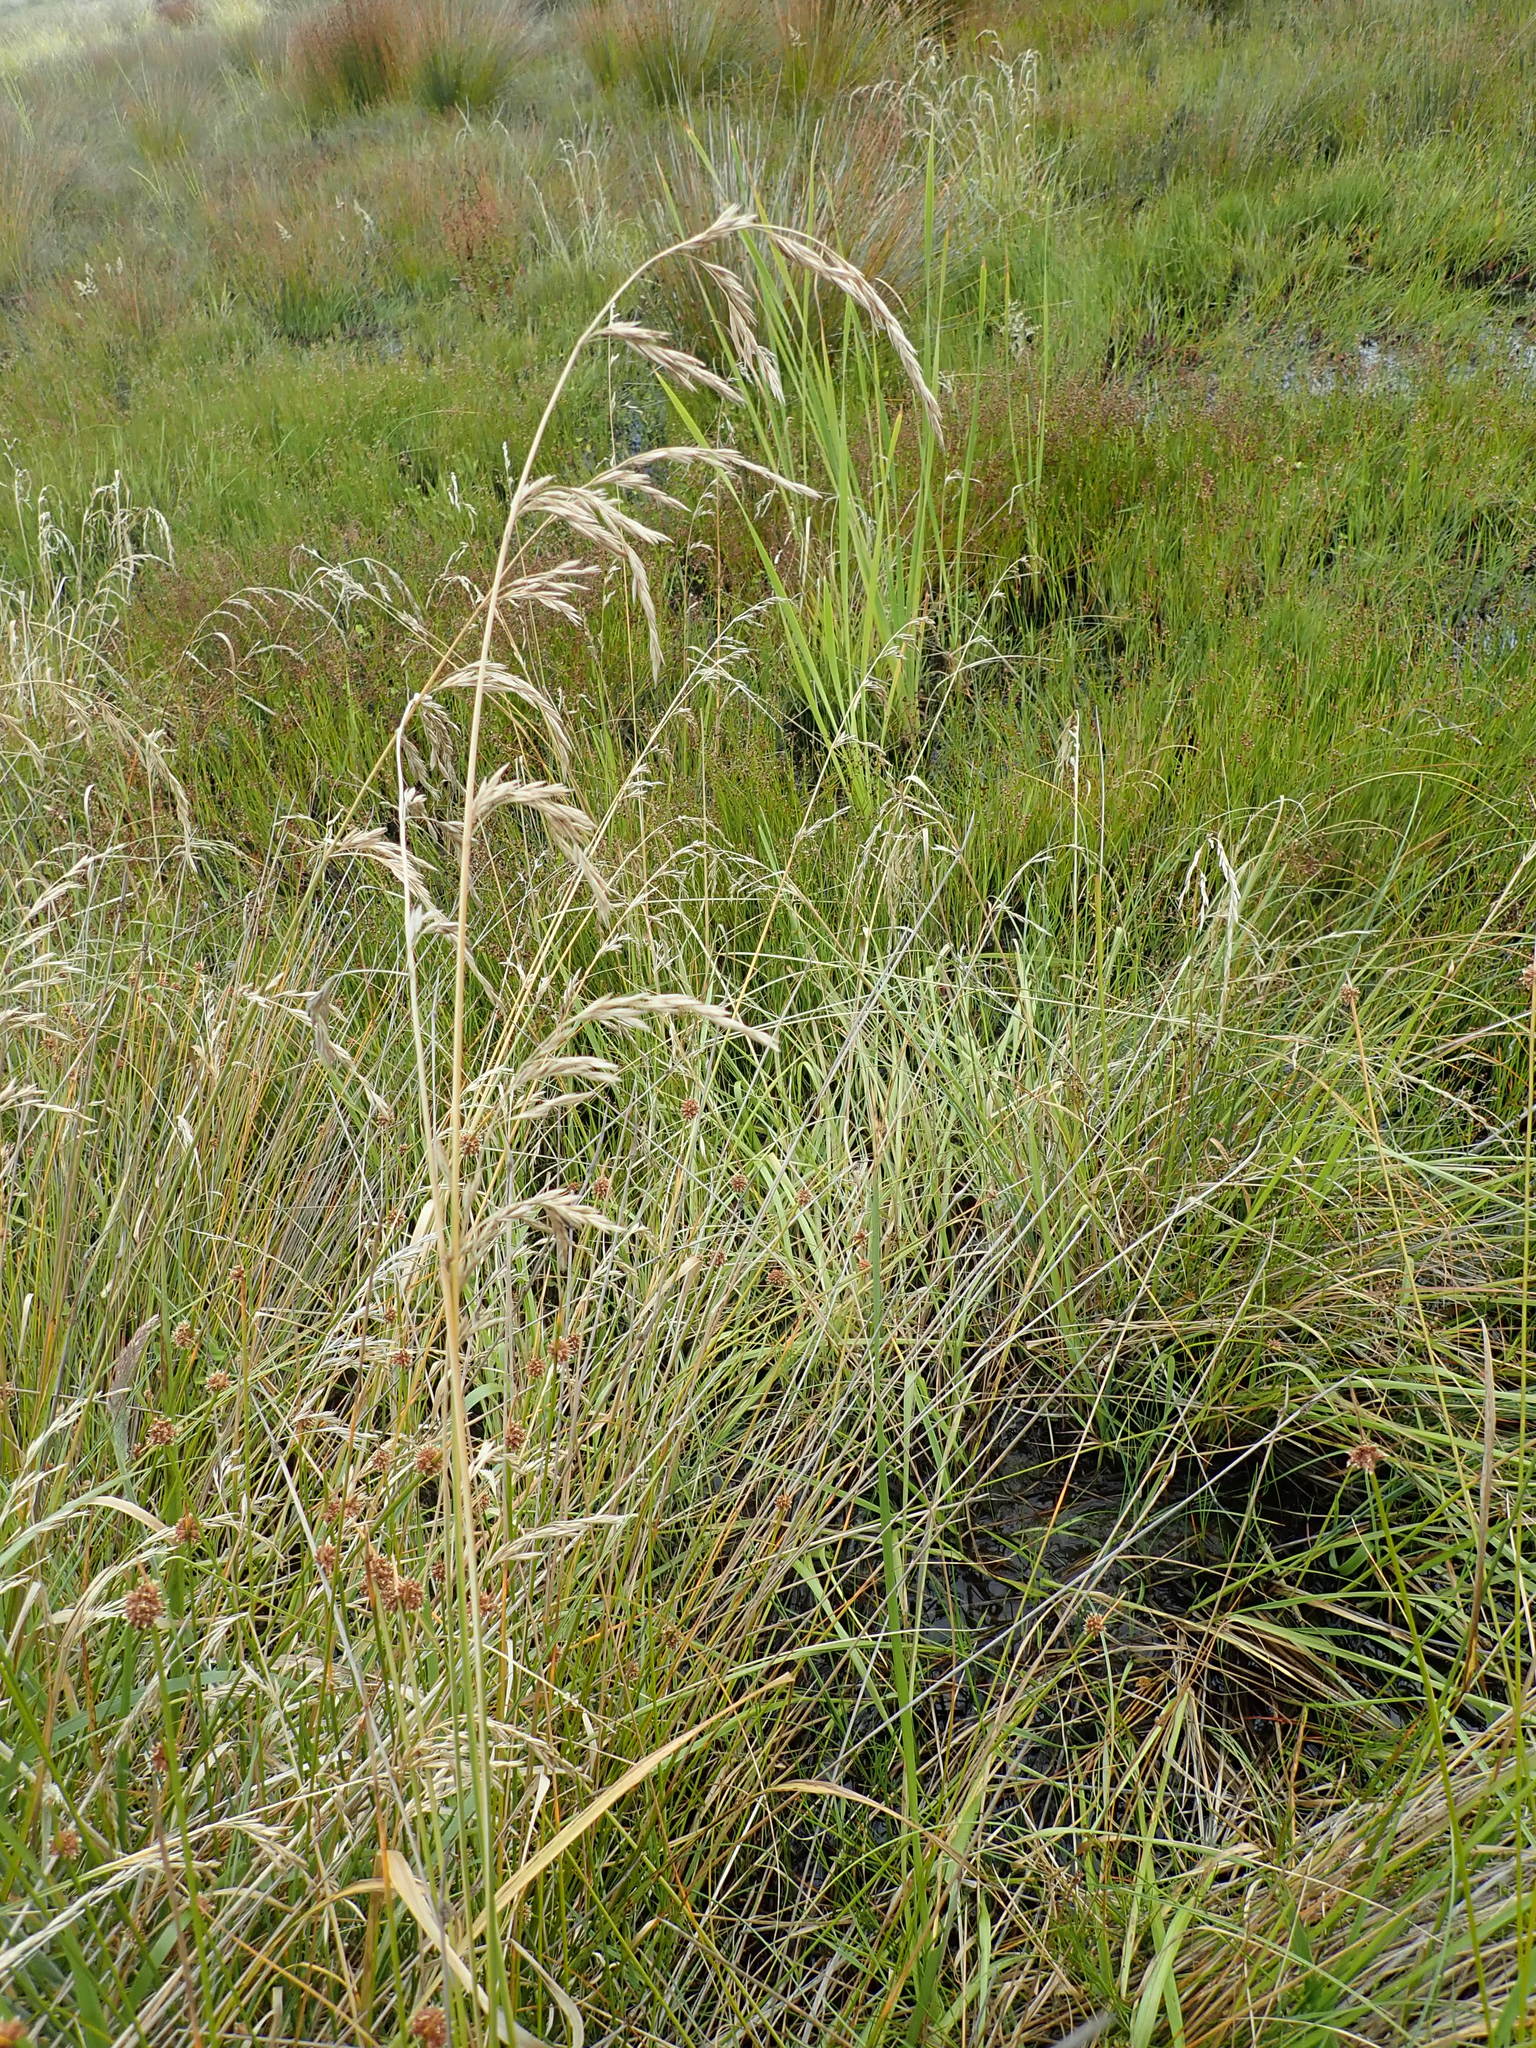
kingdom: Plantae
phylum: Tracheophyta
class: Liliopsida
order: Poales
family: Poaceae
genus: Lolium
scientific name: Lolium arundinaceum
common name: Reed fescue
